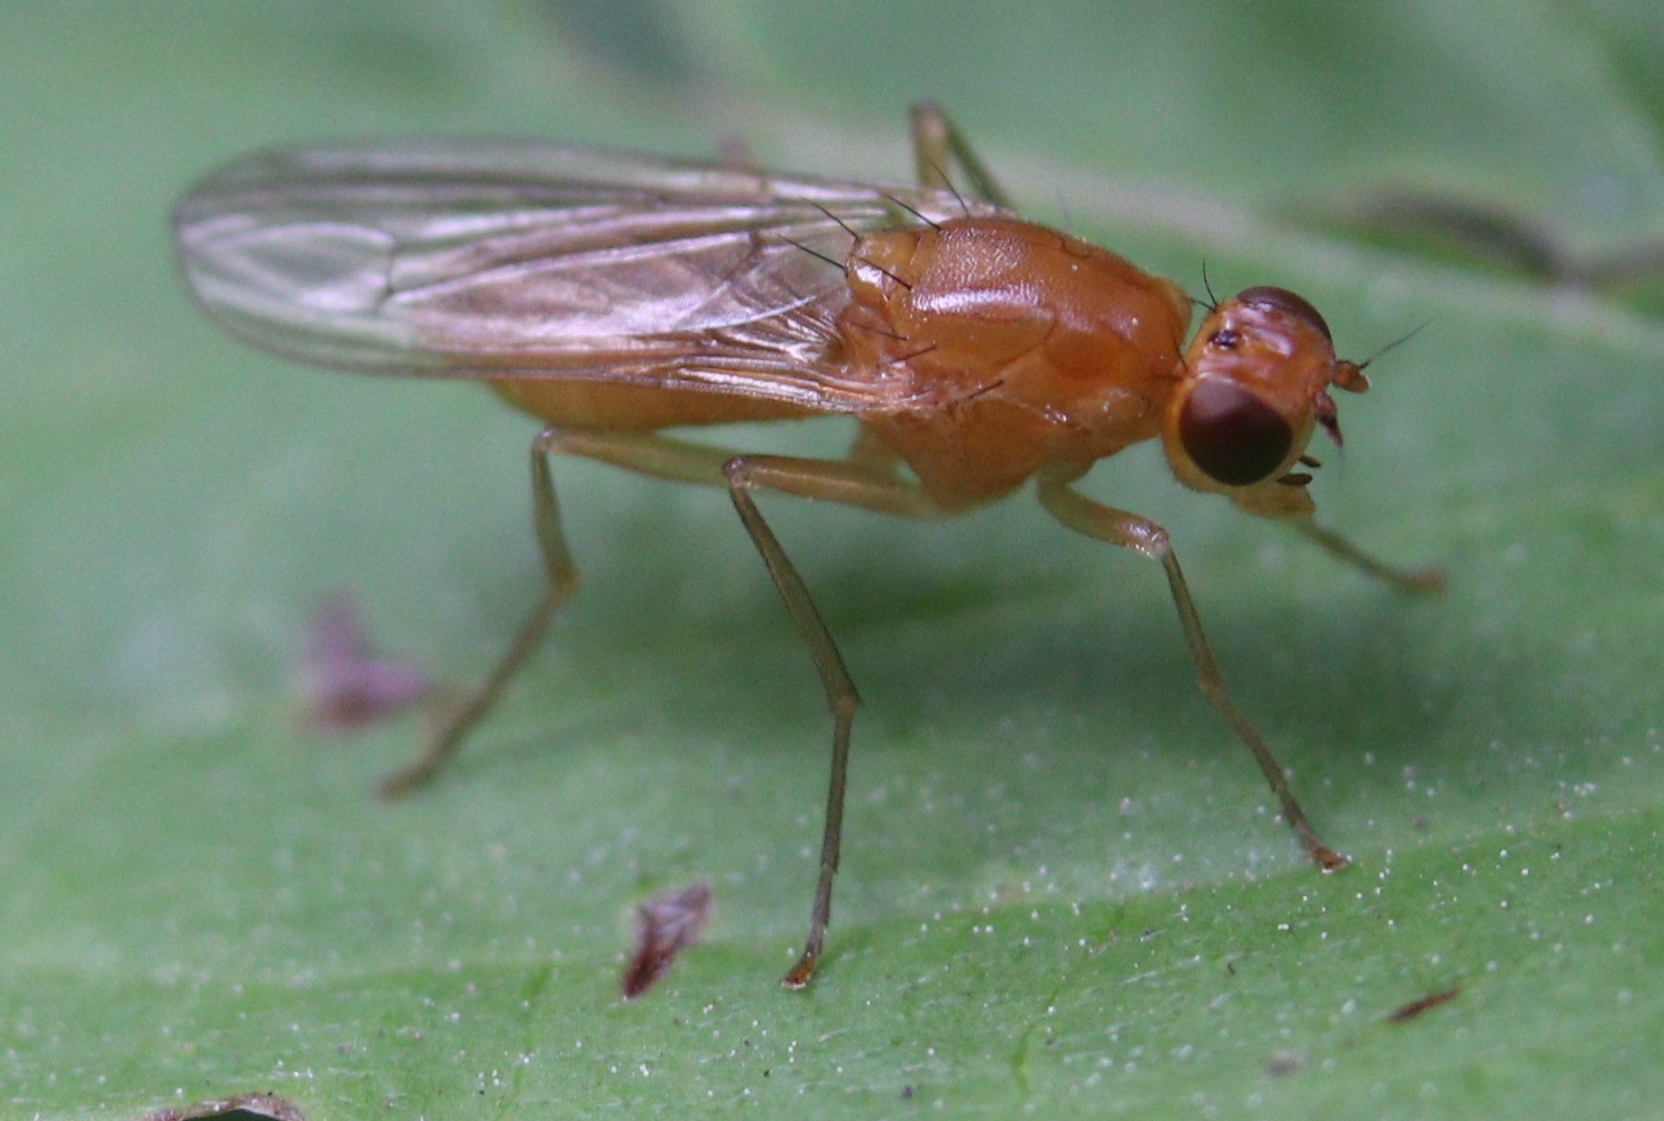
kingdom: Animalia
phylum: Arthropoda
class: Insecta
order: Diptera
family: Psilidae
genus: Psila
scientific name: Psila fimetaria
